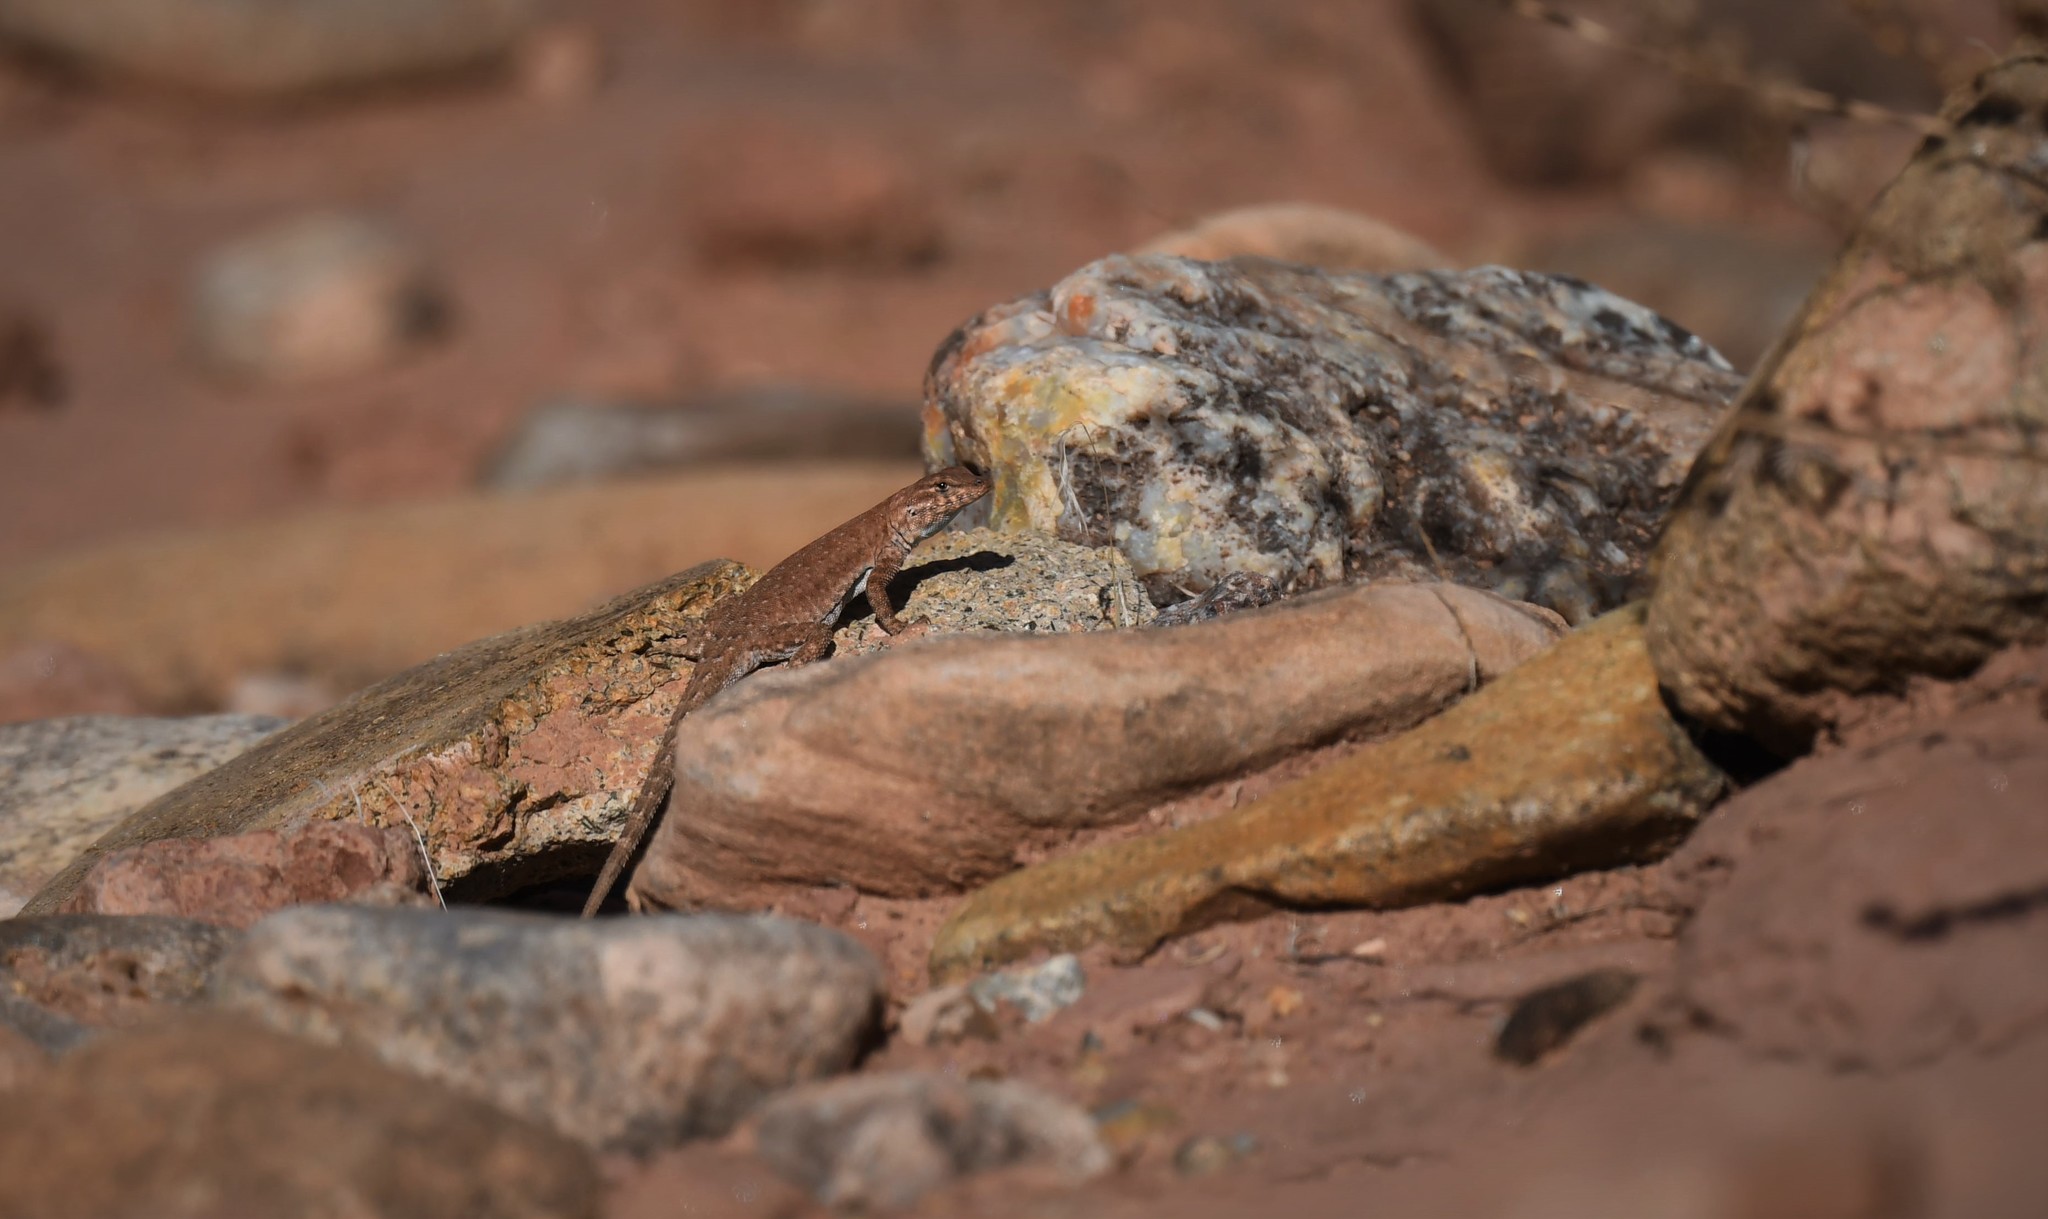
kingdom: Animalia
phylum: Chordata
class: Squamata
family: Phrynosomatidae
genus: Uta
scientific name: Uta stansburiana
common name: Side-blotched lizard
